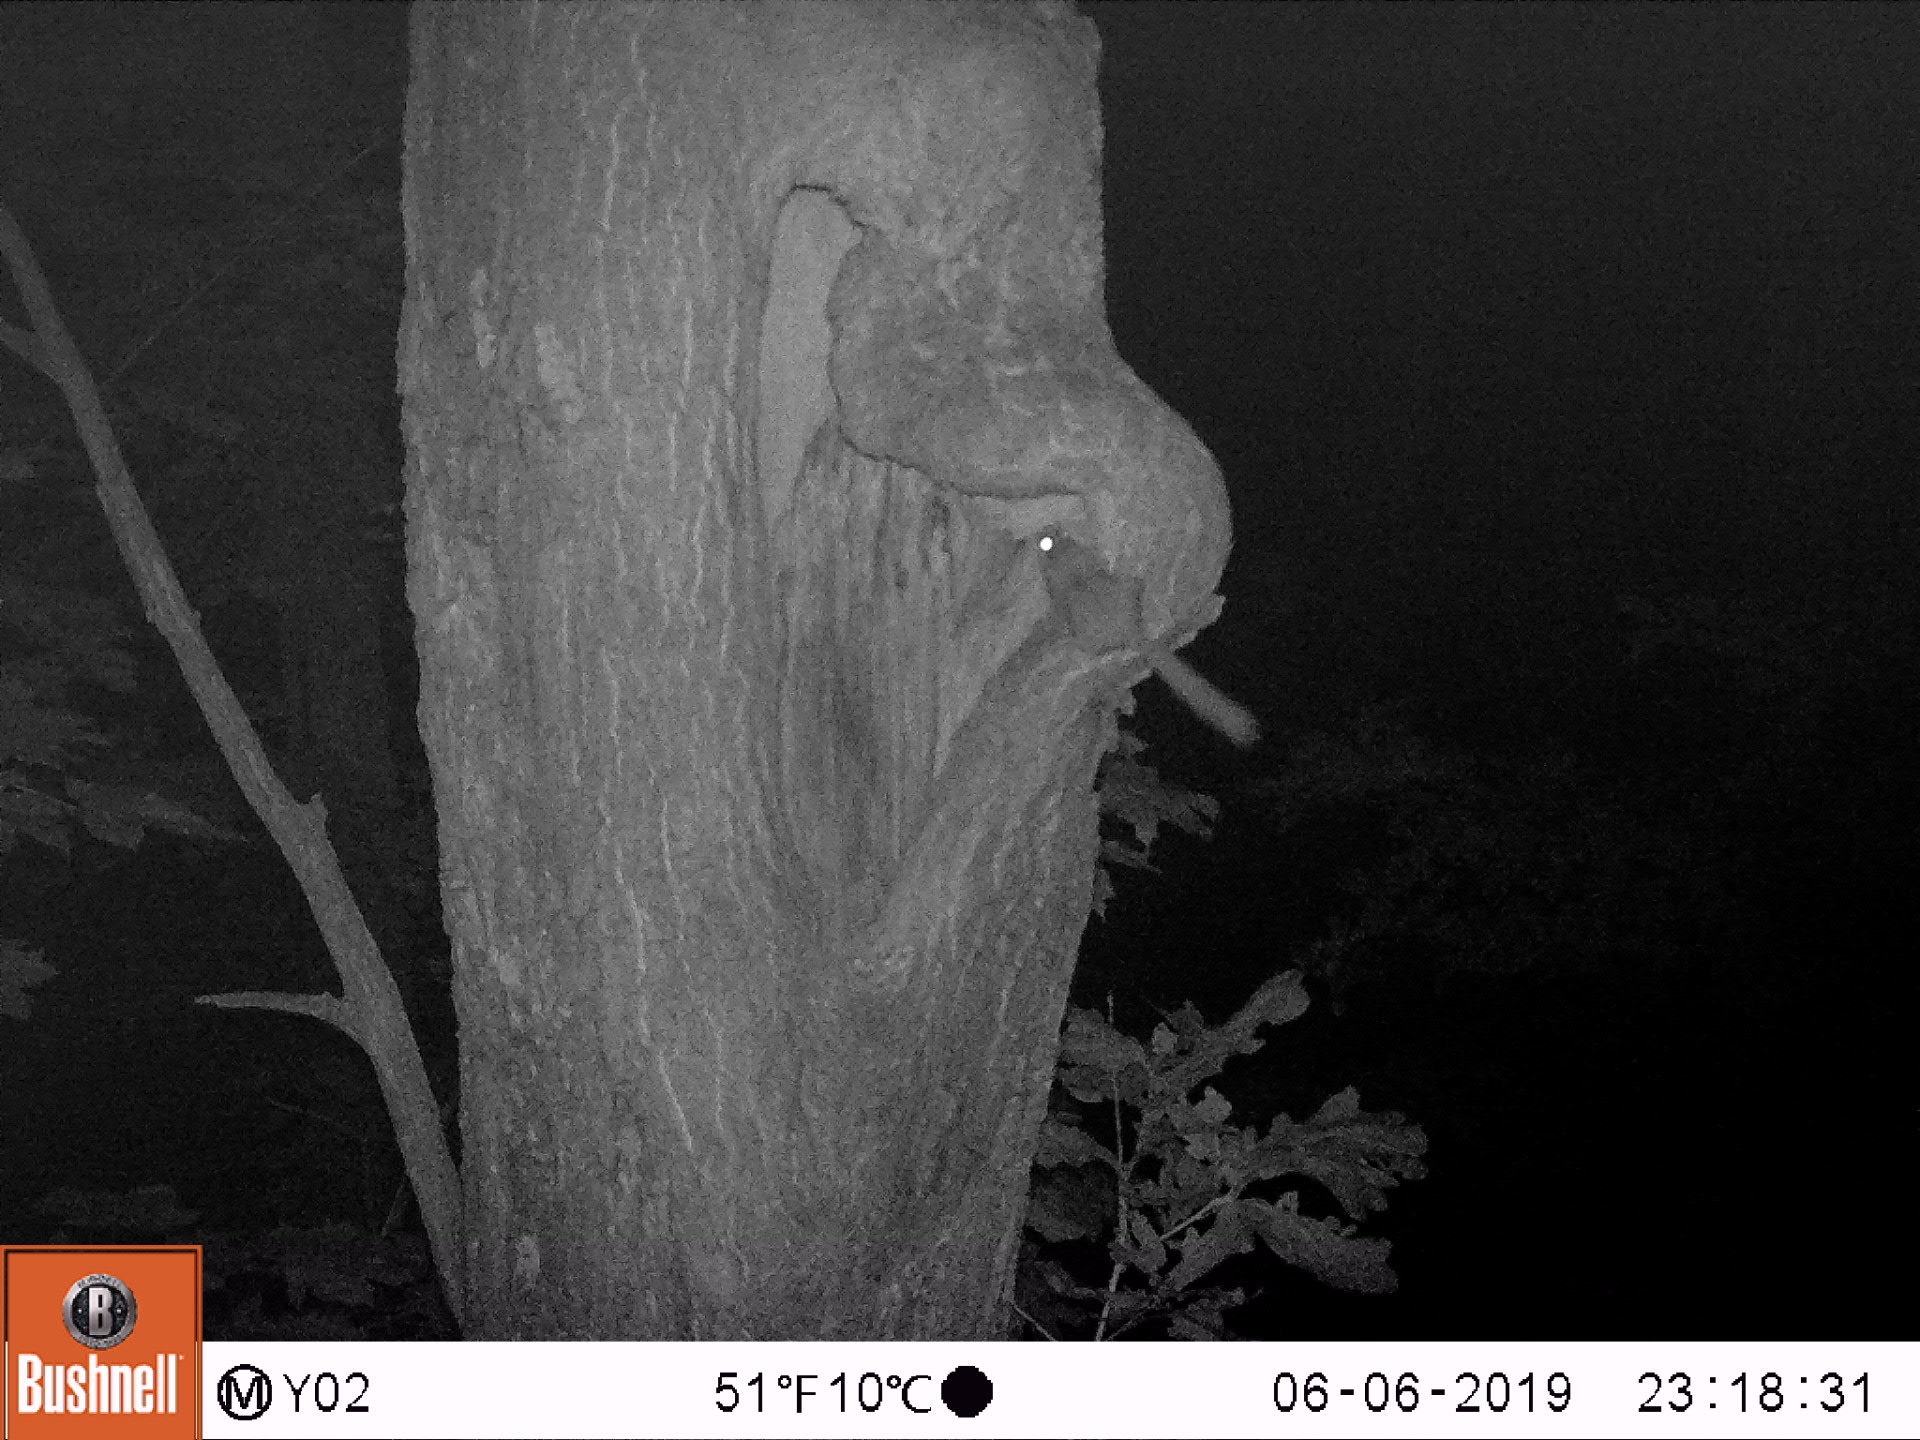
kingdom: Animalia
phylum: Chordata
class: Mammalia
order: Rodentia
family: Gliridae
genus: Dryomys
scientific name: Dryomys nitedula
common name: Forest dormouse
